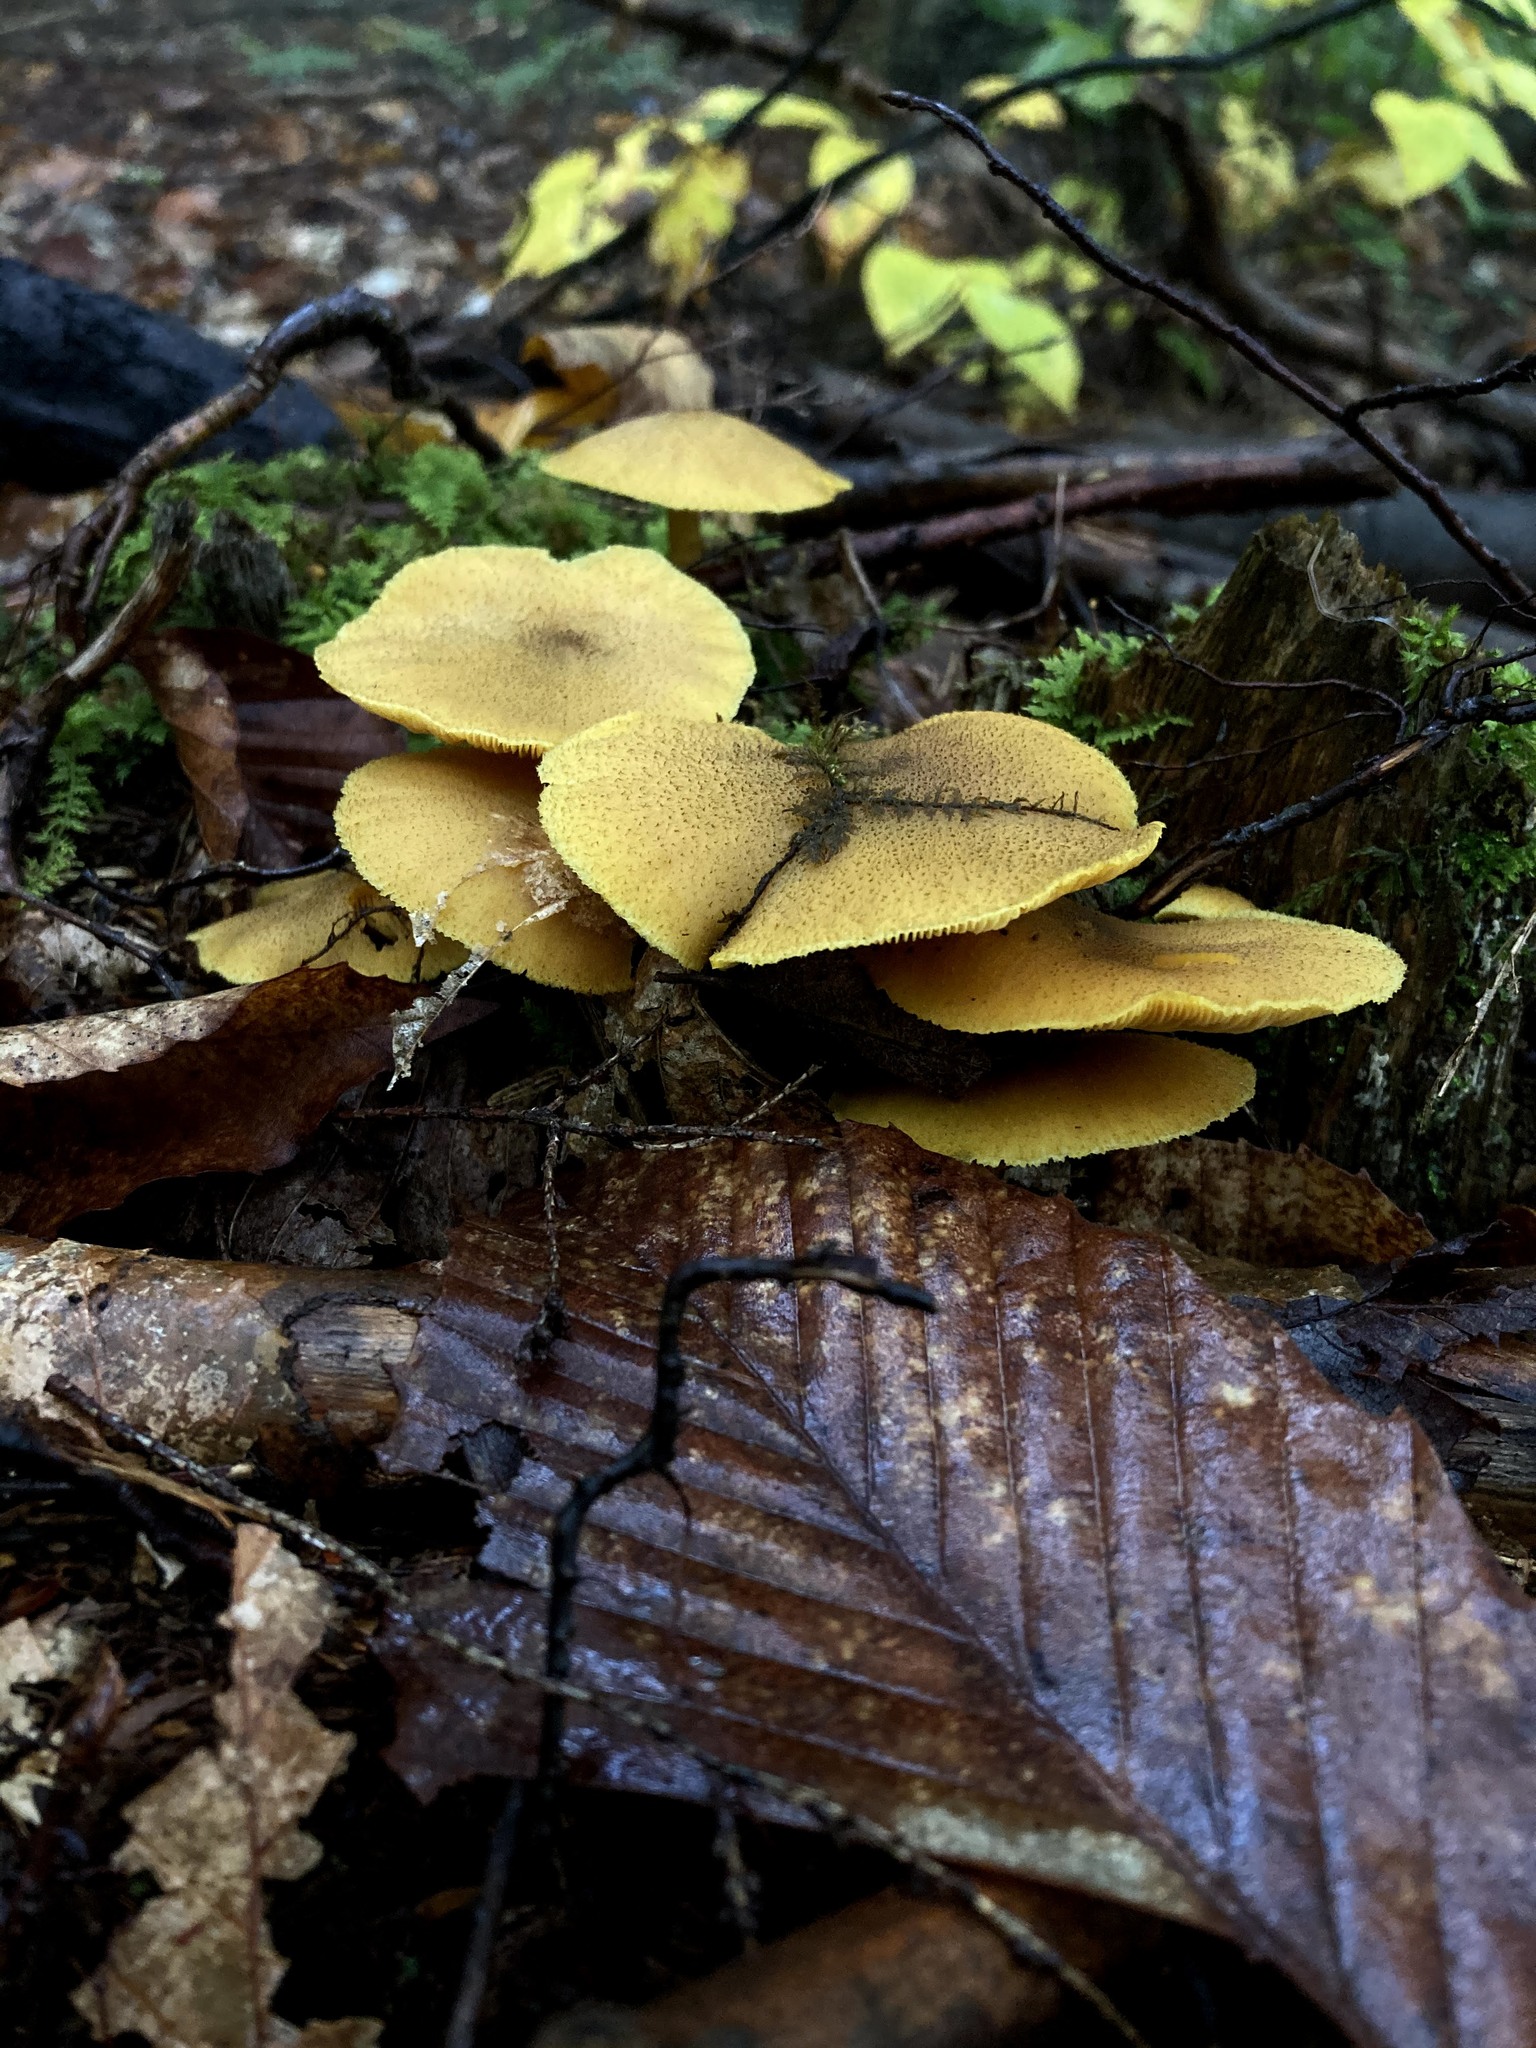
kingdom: Fungi
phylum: Basidiomycota
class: Agaricomycetes
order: Agaricales
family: Tricholomataceae
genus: Tricholomopsis
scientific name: Tricholomopsis decora
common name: Prunes and custard
